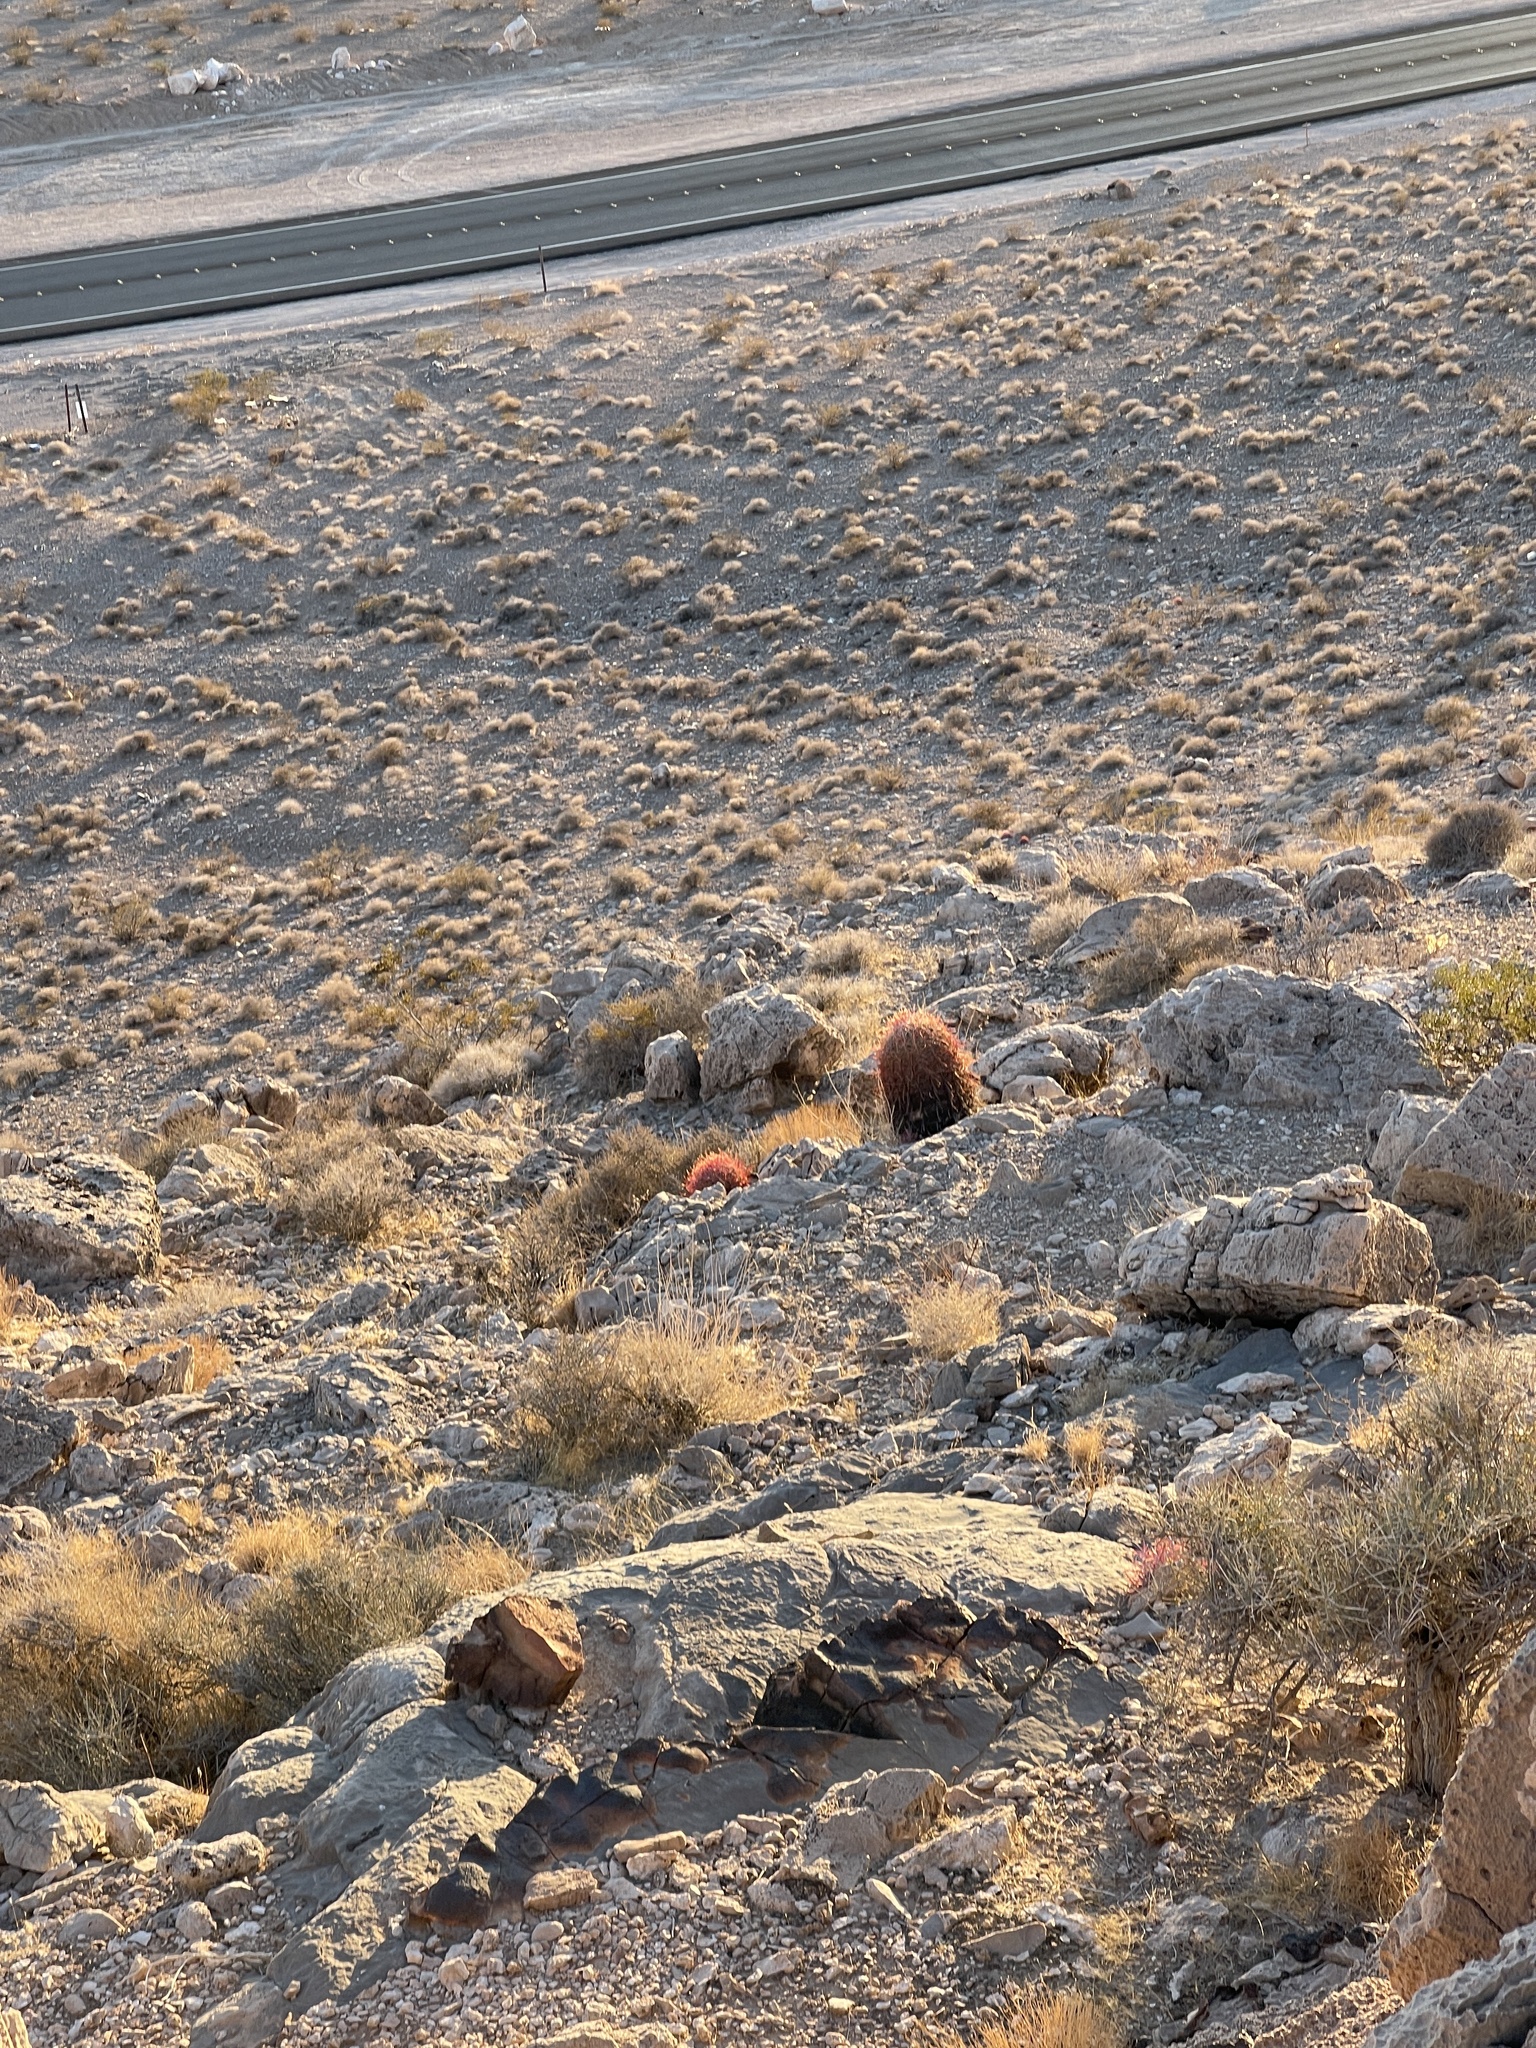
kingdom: Plantae
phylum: Tracheophyta
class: Magnoliopsida
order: Caryophyllales
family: Cactaceae
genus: Ferocactus
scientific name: Ferocactus cylindraceus
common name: California barrel cactus
